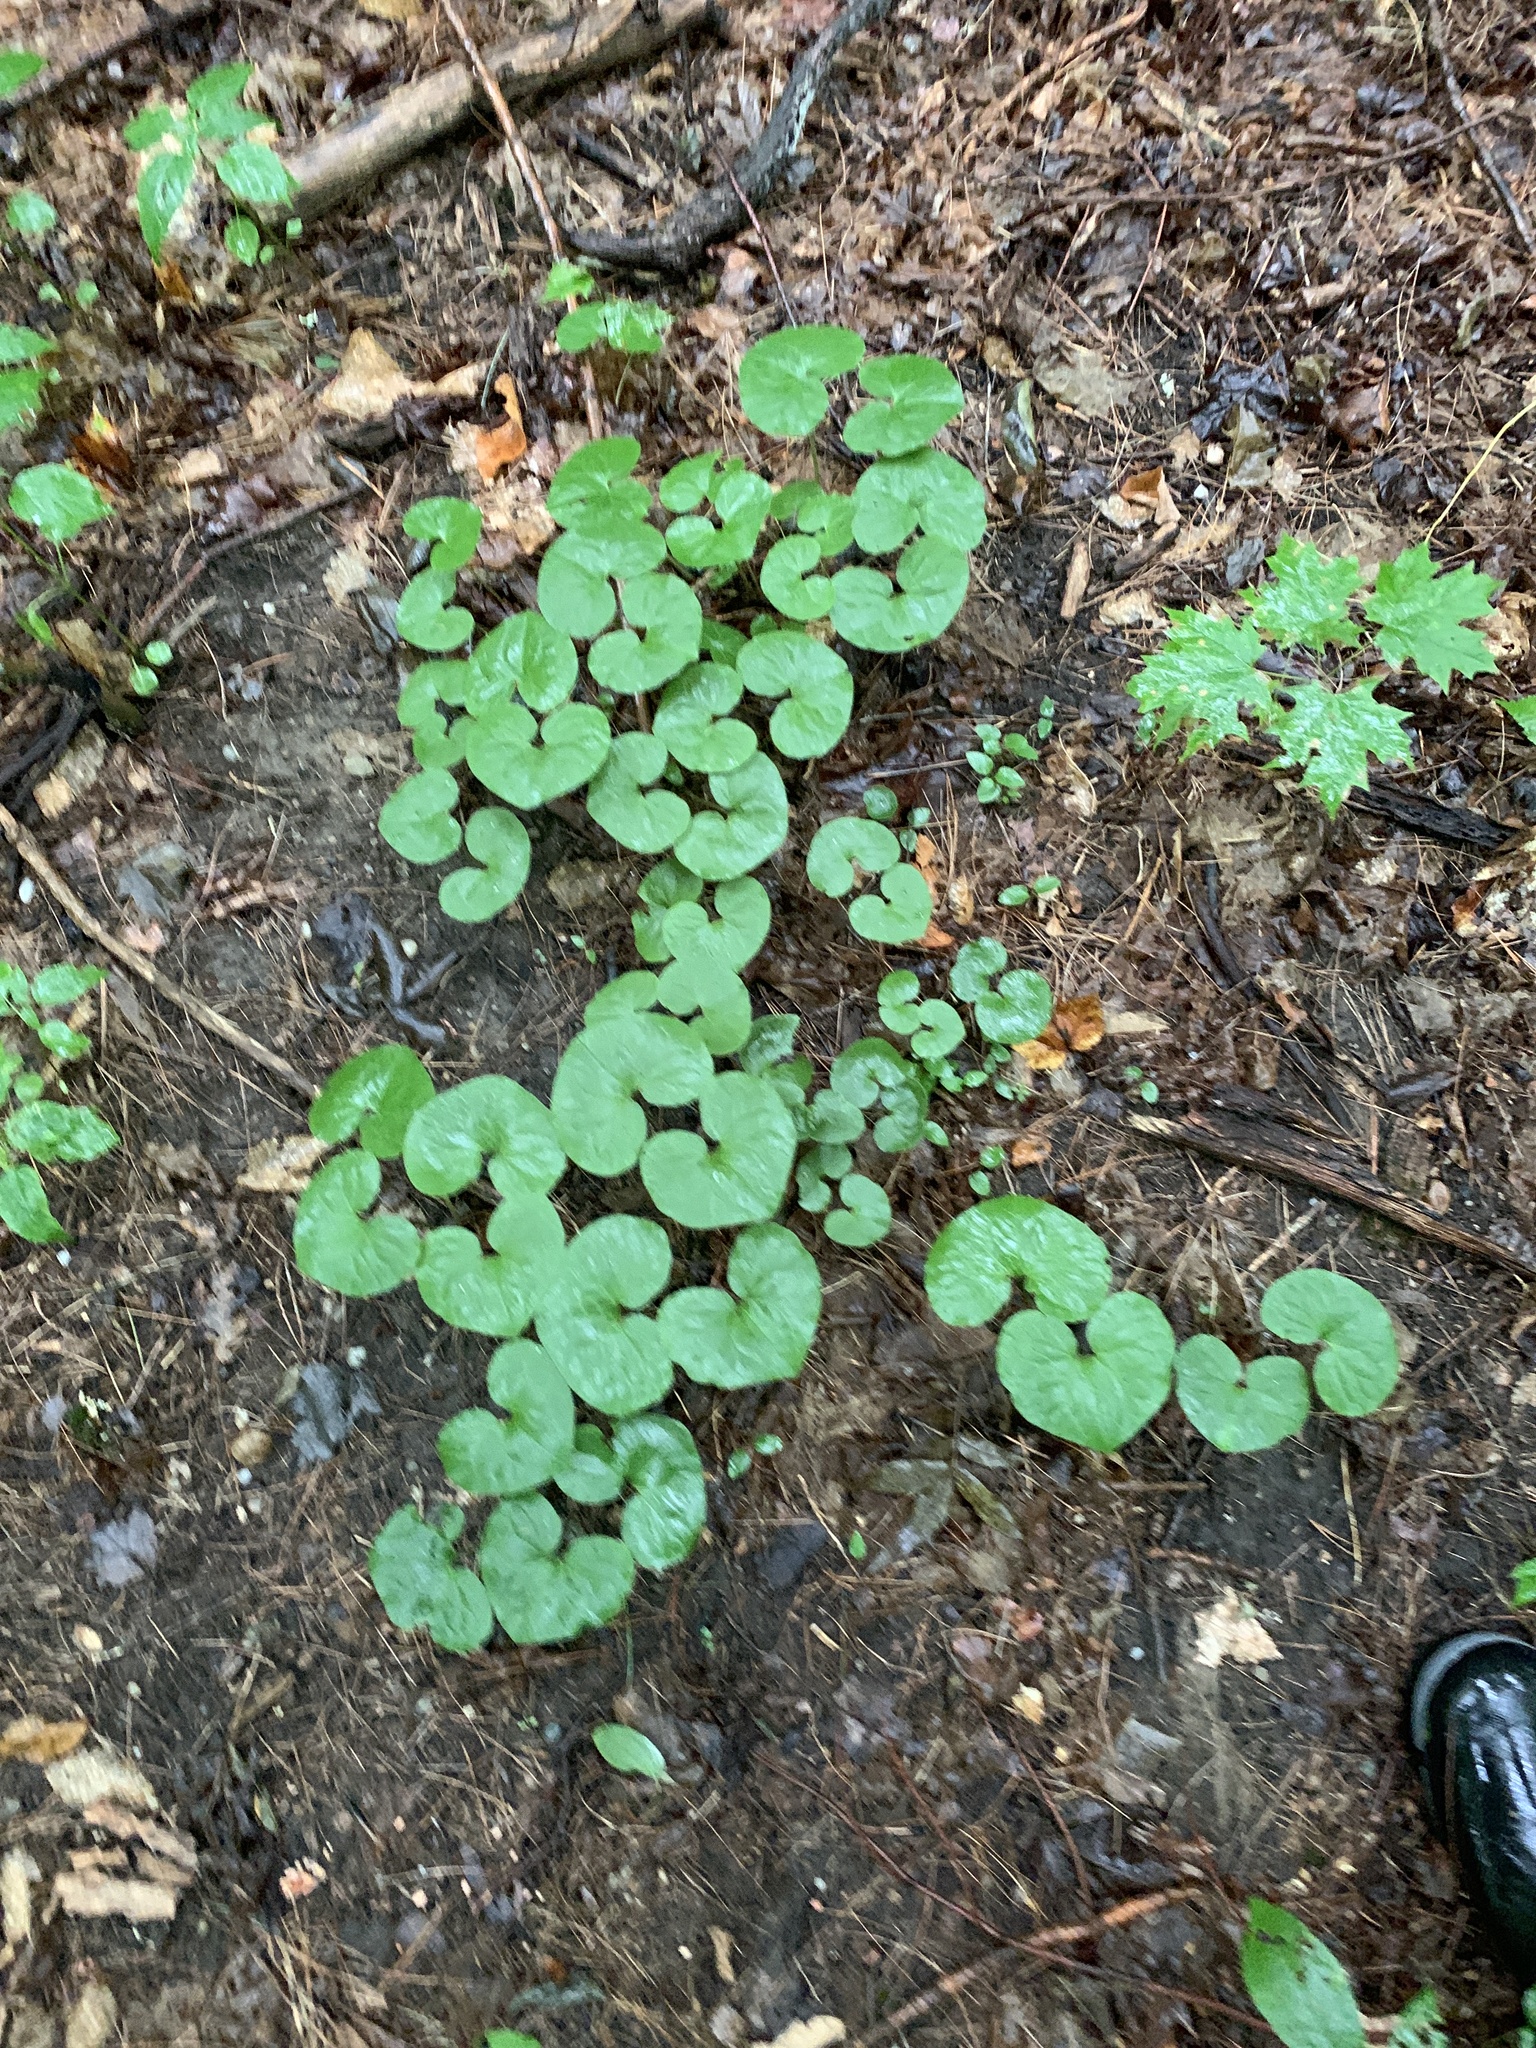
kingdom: Plantae
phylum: Tracheophyta
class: Magnoliopsida
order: Piperales
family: Aristolochiaceae
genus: Asarum
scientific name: Asarum canadense
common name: Wild ginger
